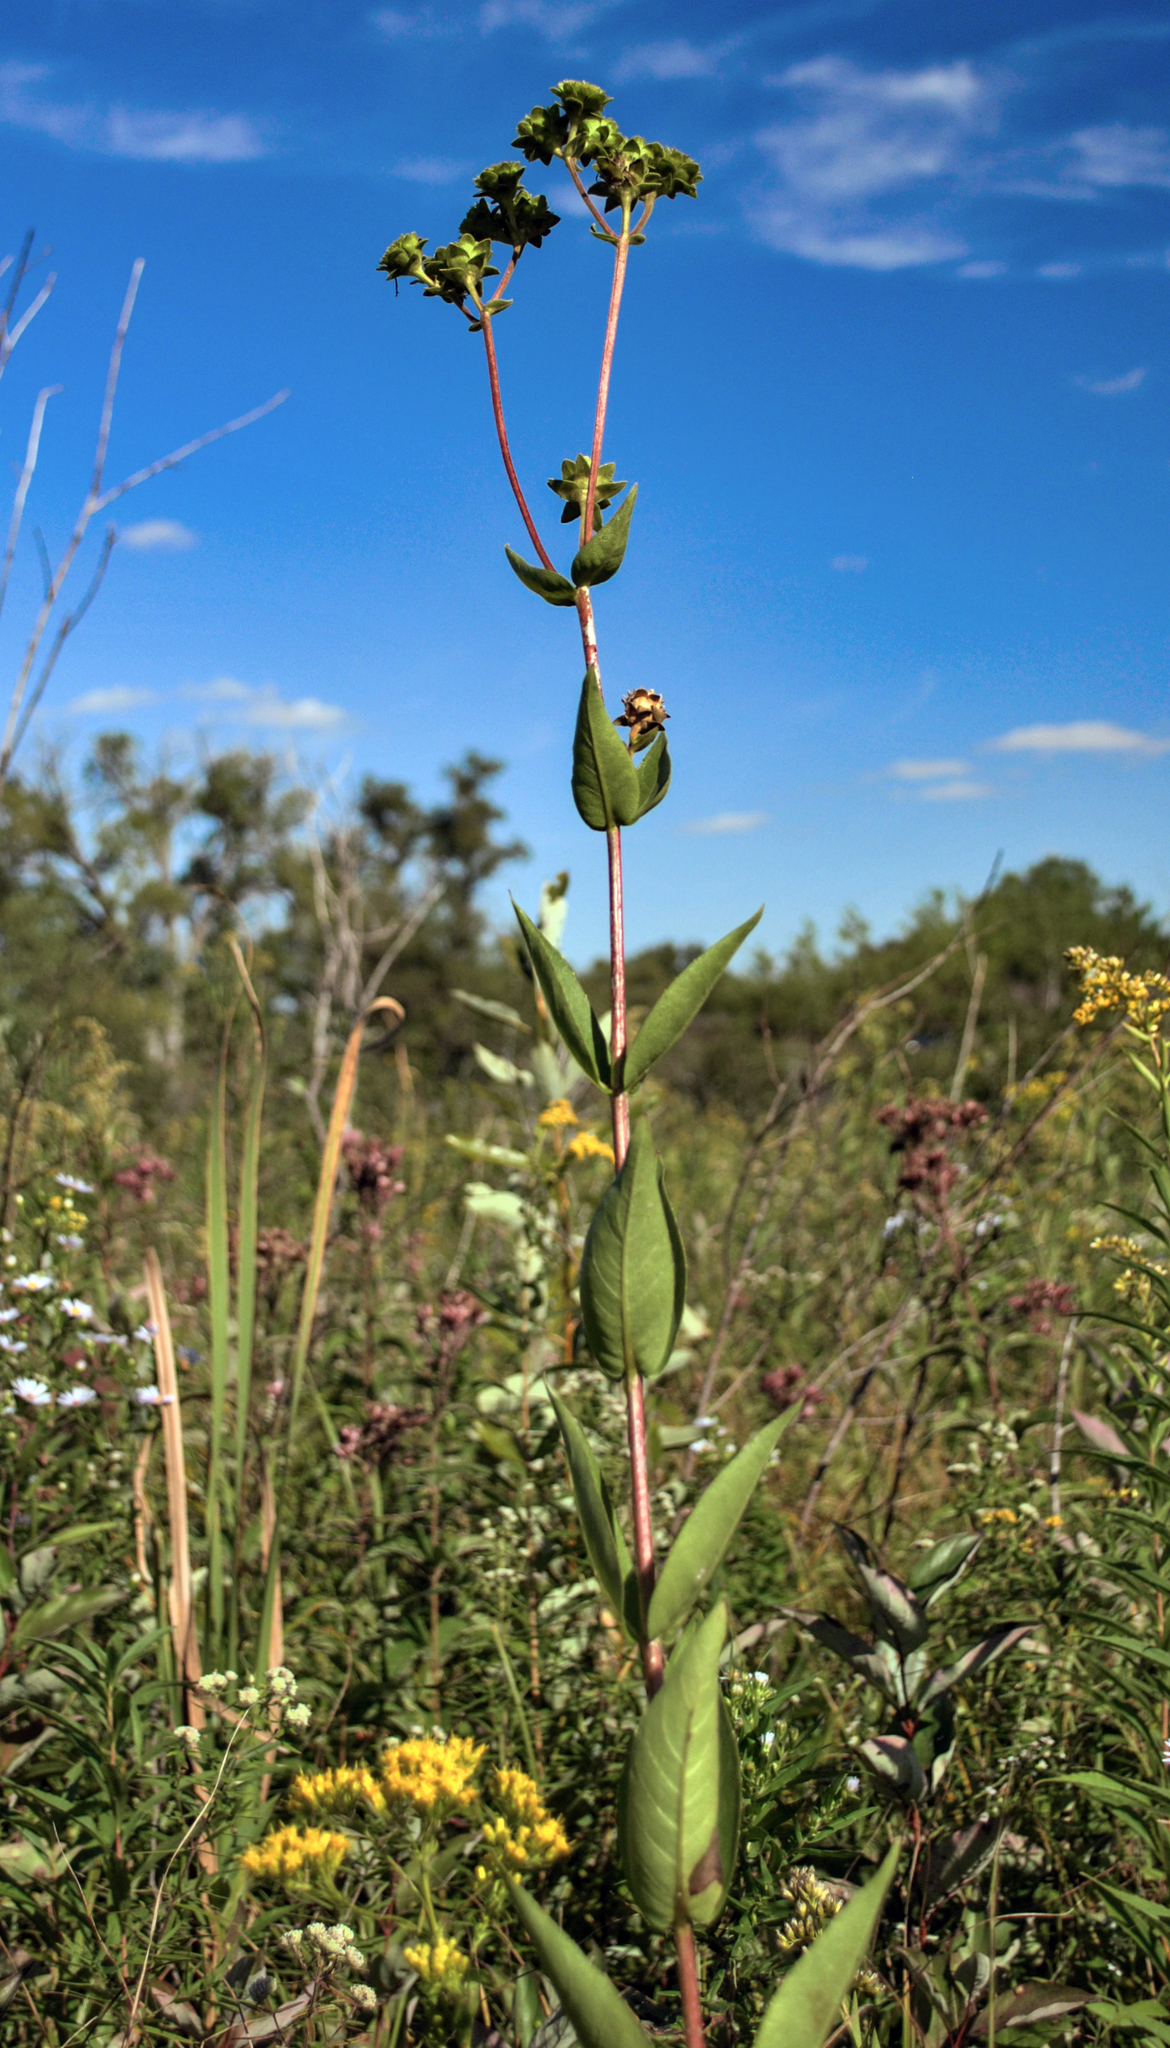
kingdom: Plantae
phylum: Tracheophyta
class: Magnoliopsida
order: Asterales
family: Asteraceae
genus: Silphium
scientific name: Silphium integrifolium
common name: Whole-leaf rosinweed
